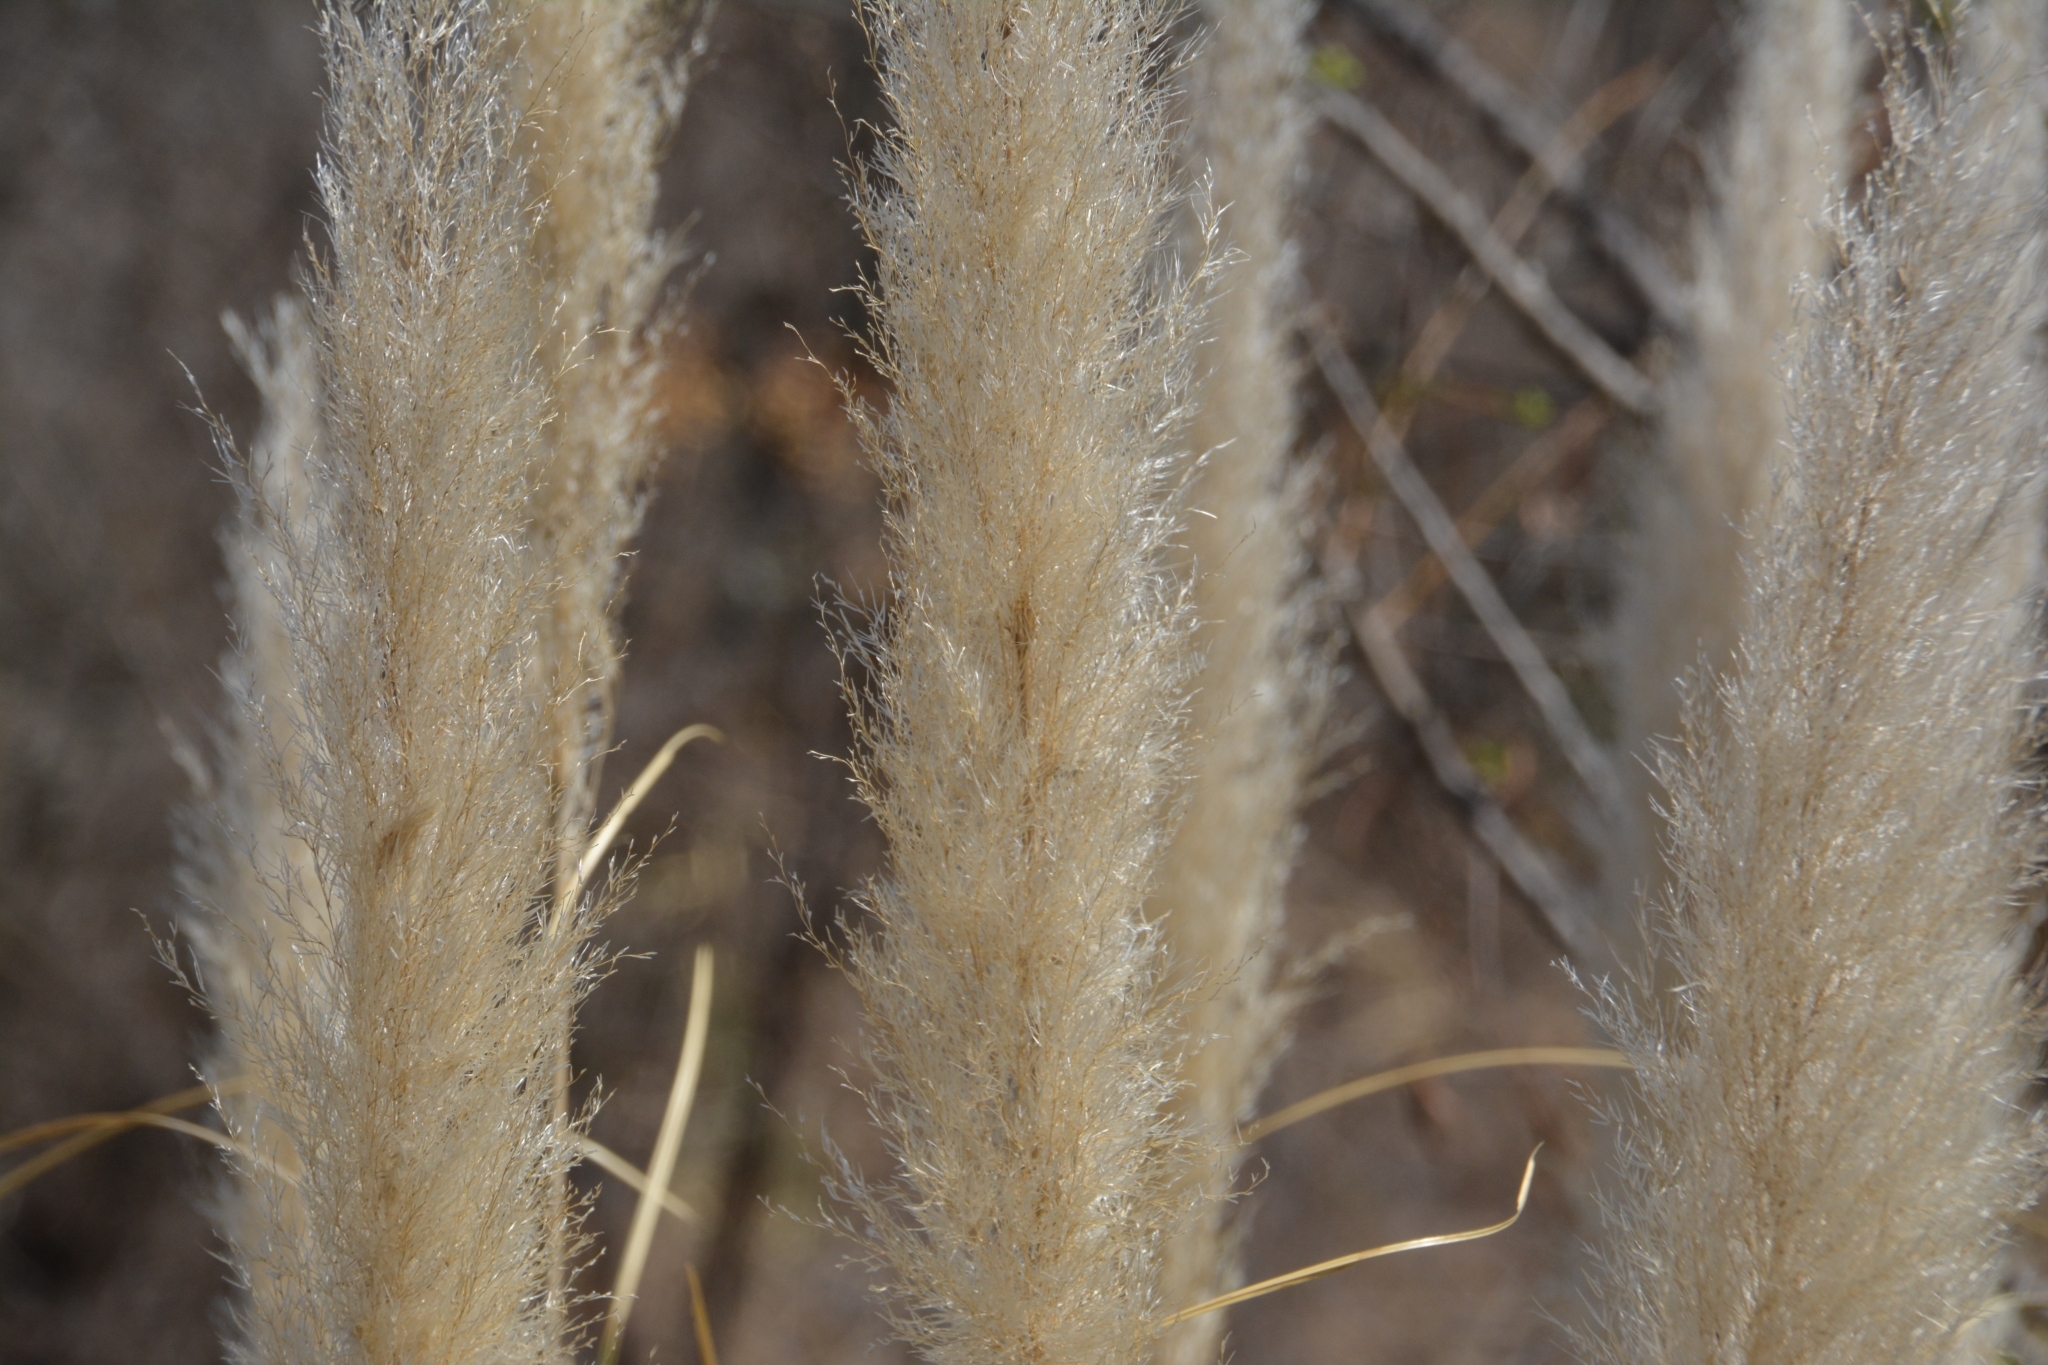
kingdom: Plantae
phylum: Tracheophyta
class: Liliopsida
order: Poales
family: Poaceae
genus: Cortaderia
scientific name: Cortaderia selloana
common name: Uruguayan pampas grass
